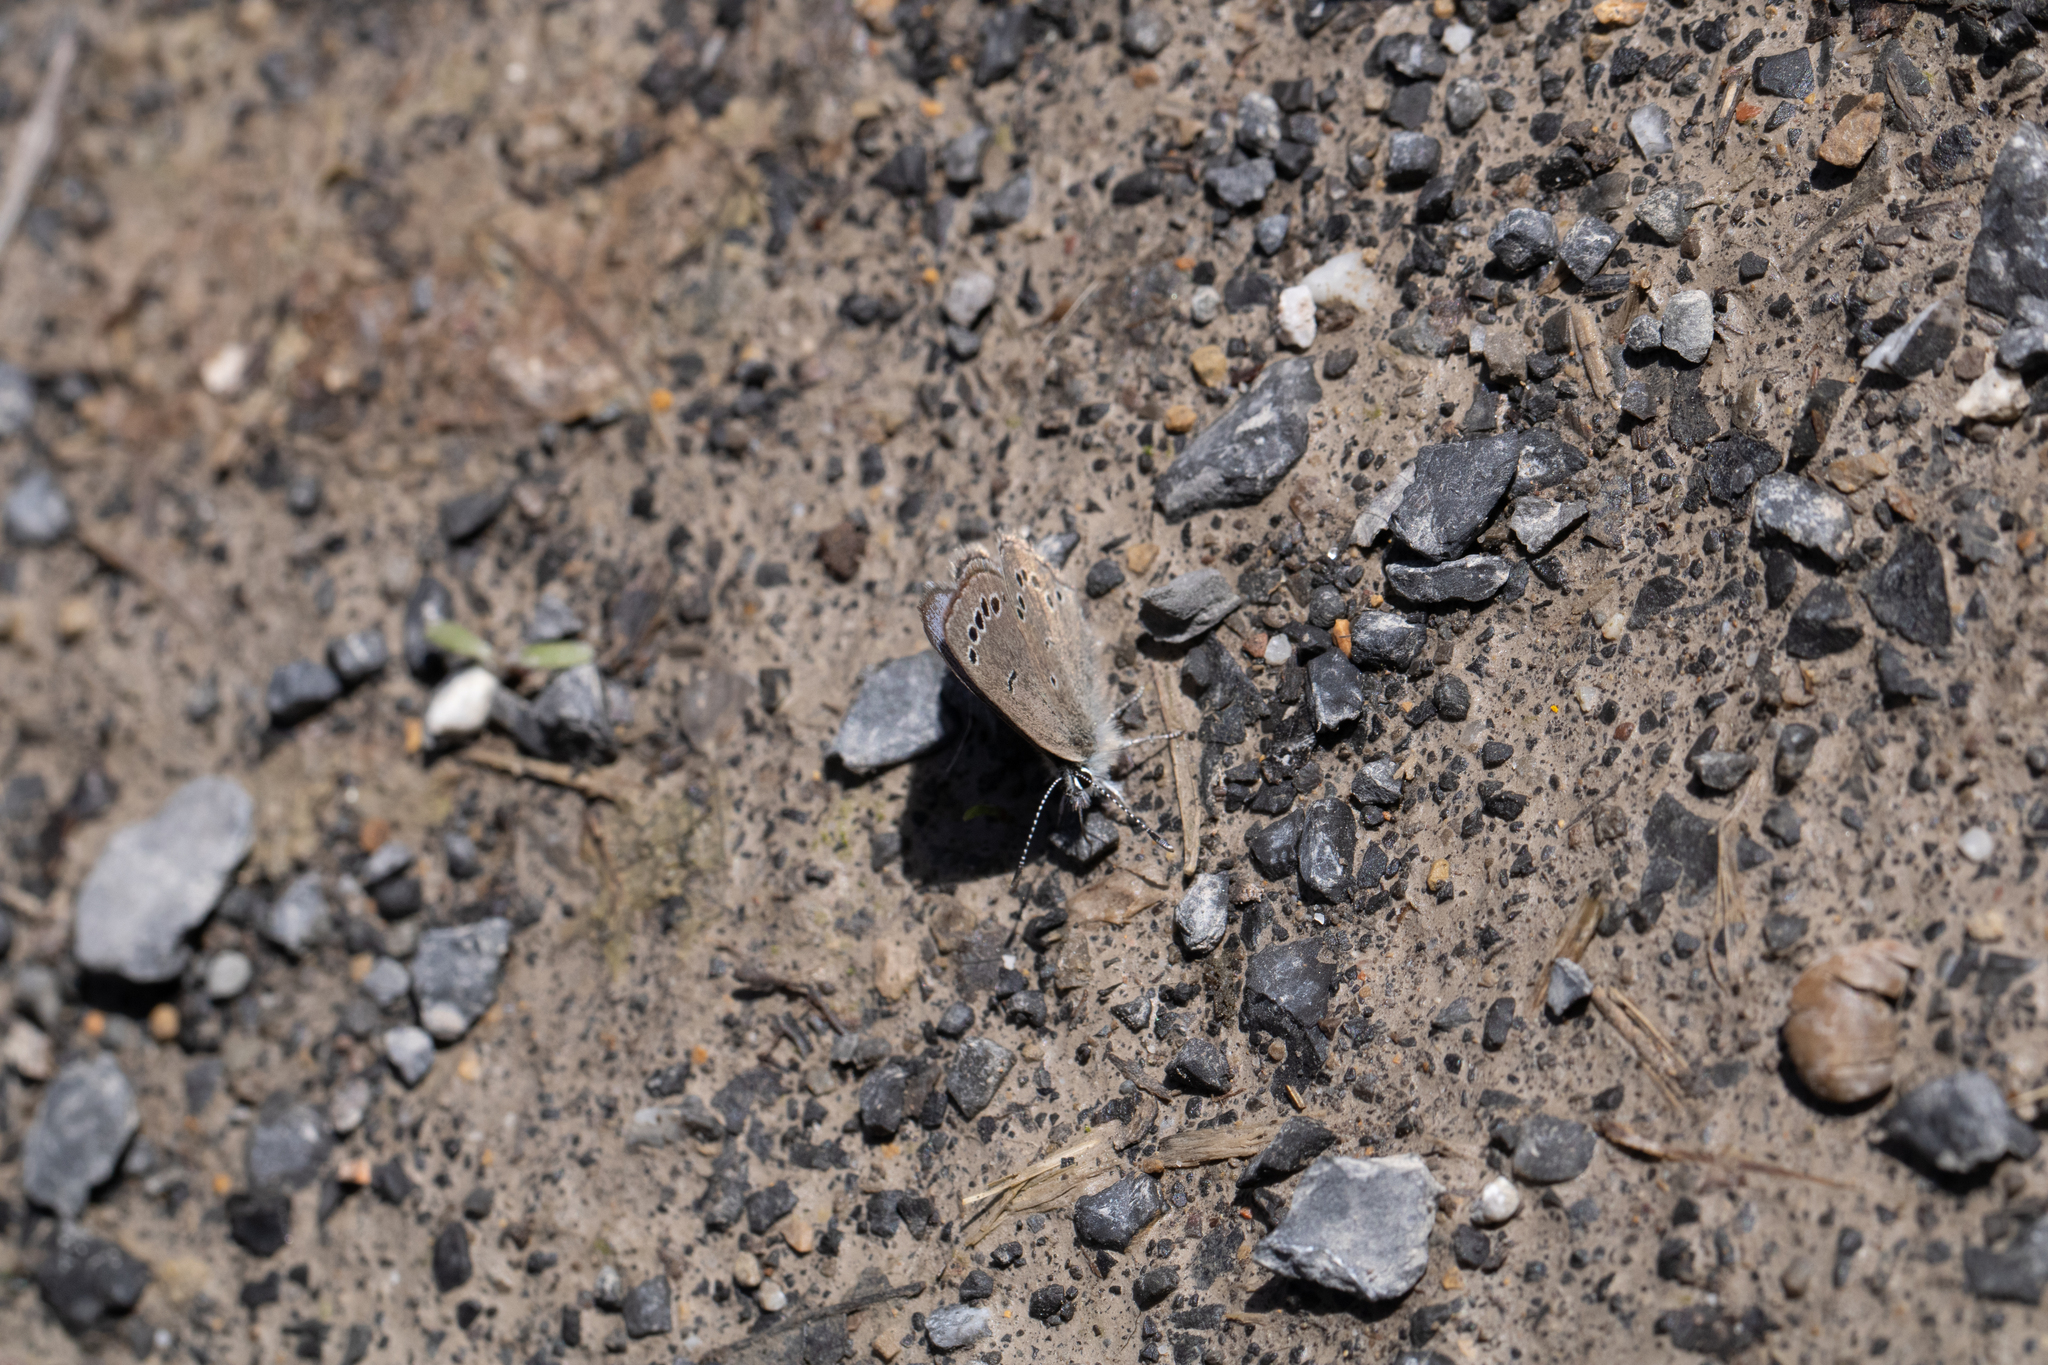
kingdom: Animalia
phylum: Arthropoda
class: Insecta
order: Lepidoptera
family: Lycaenidae
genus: Glaucopsyche
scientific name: Glaucopsyche lygdamus
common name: Silvery blue
